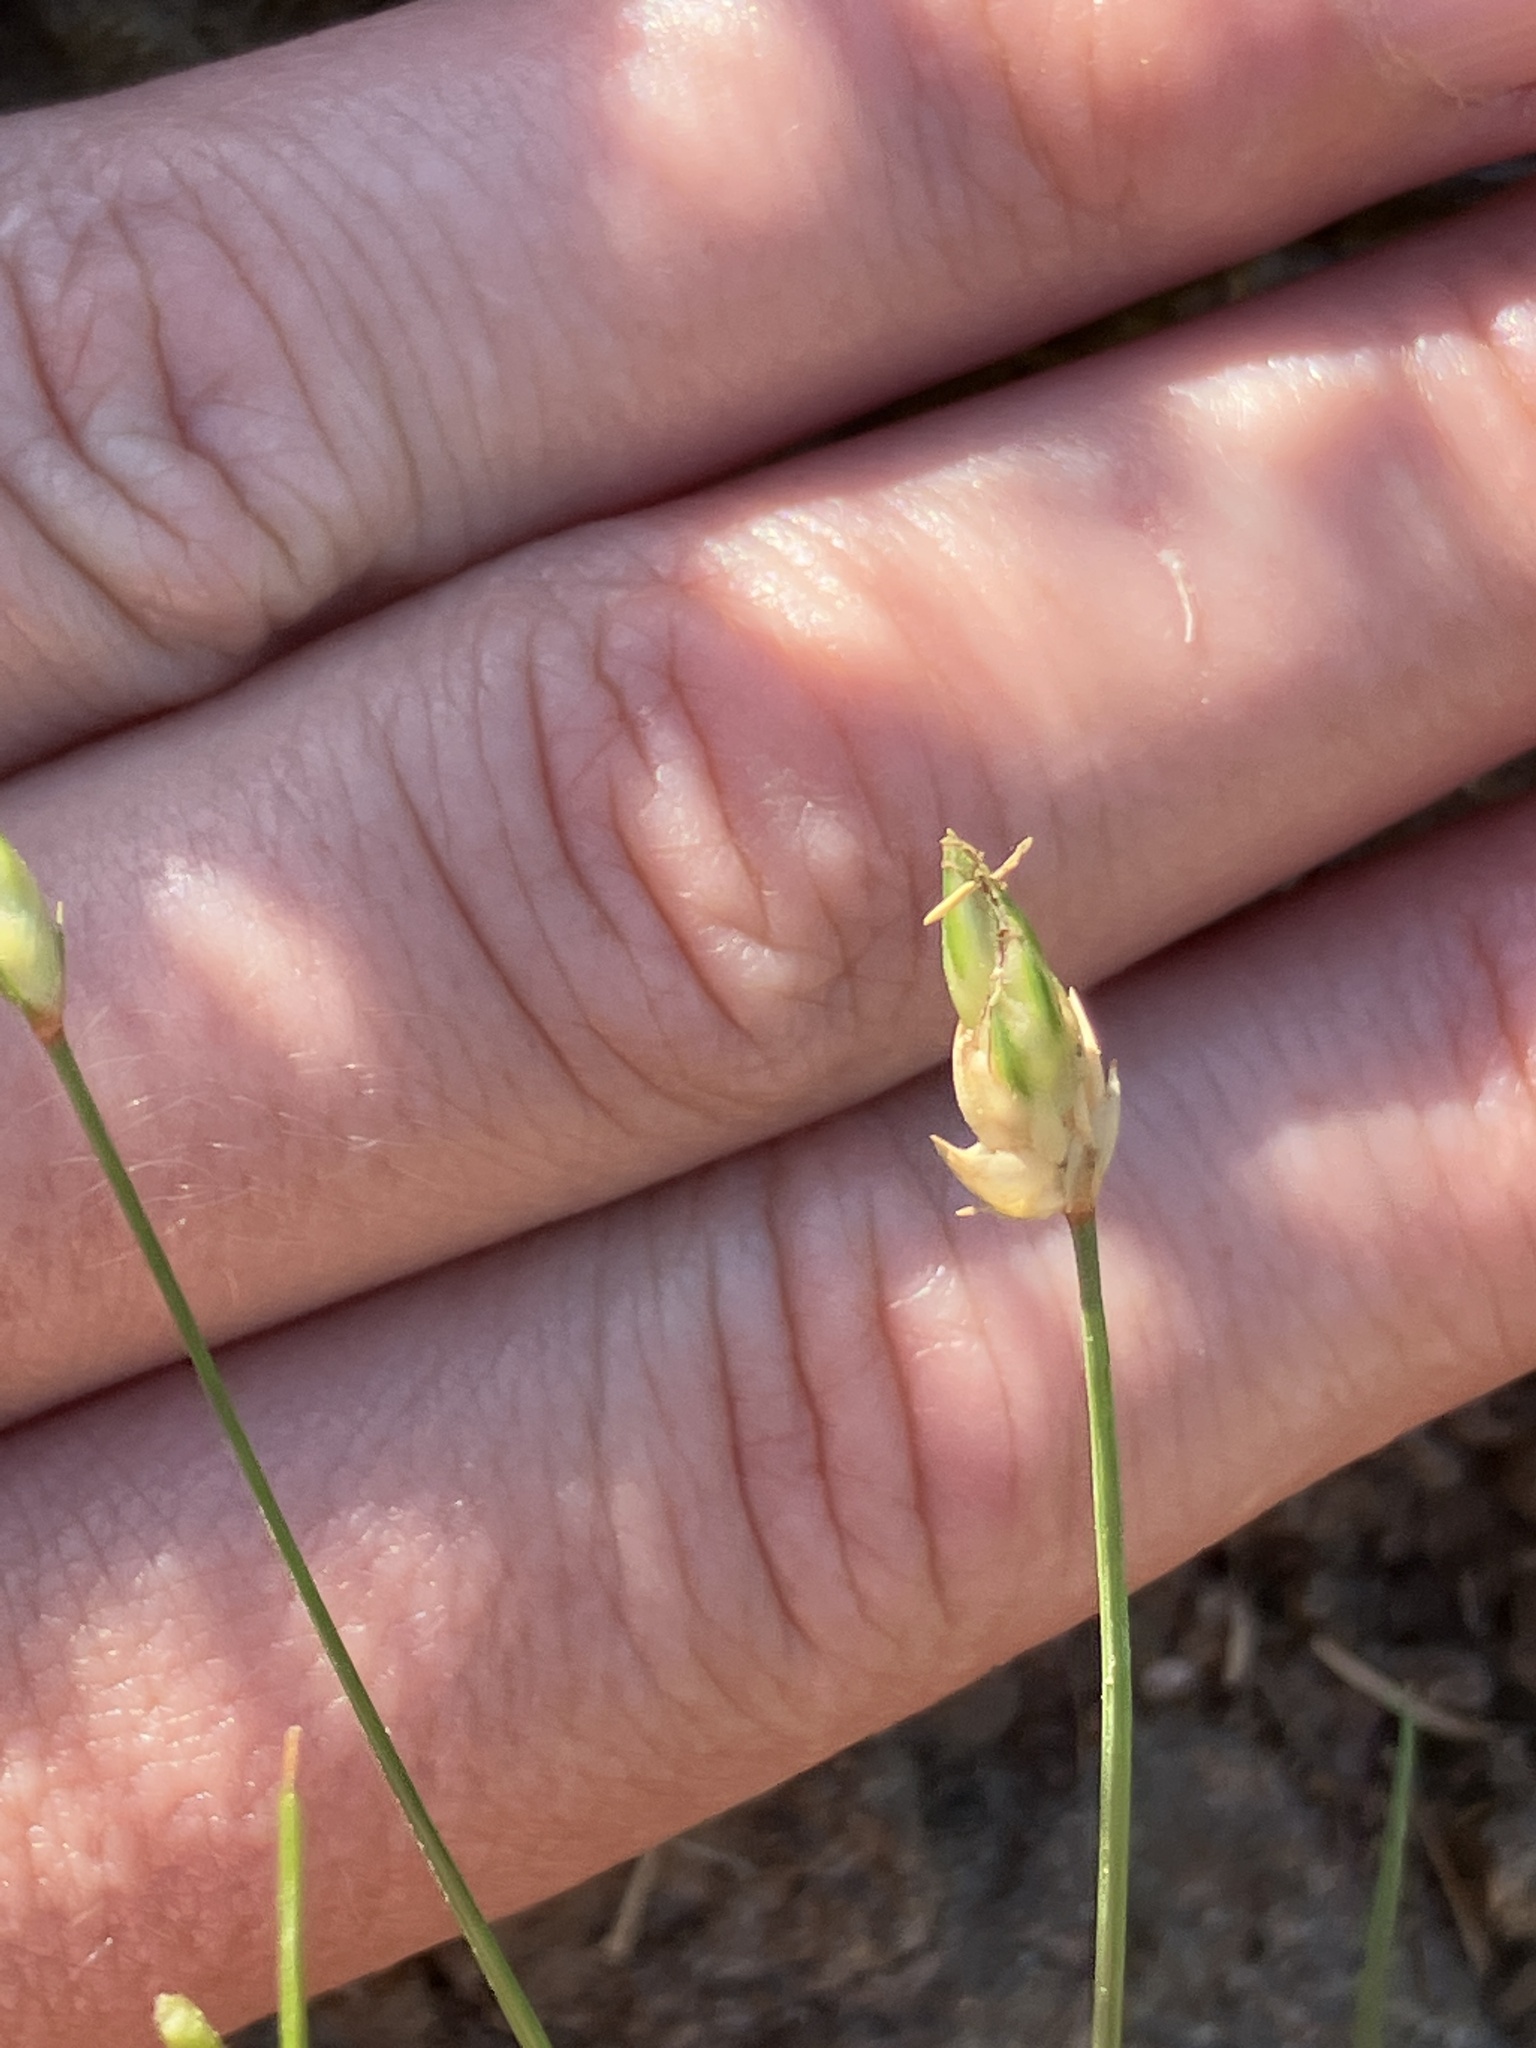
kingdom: Plantae
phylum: Tracheophyta
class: Liliopsida
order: Poales
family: Cyperaceae
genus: Abildgaardia
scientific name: Abildgaardia ovata
